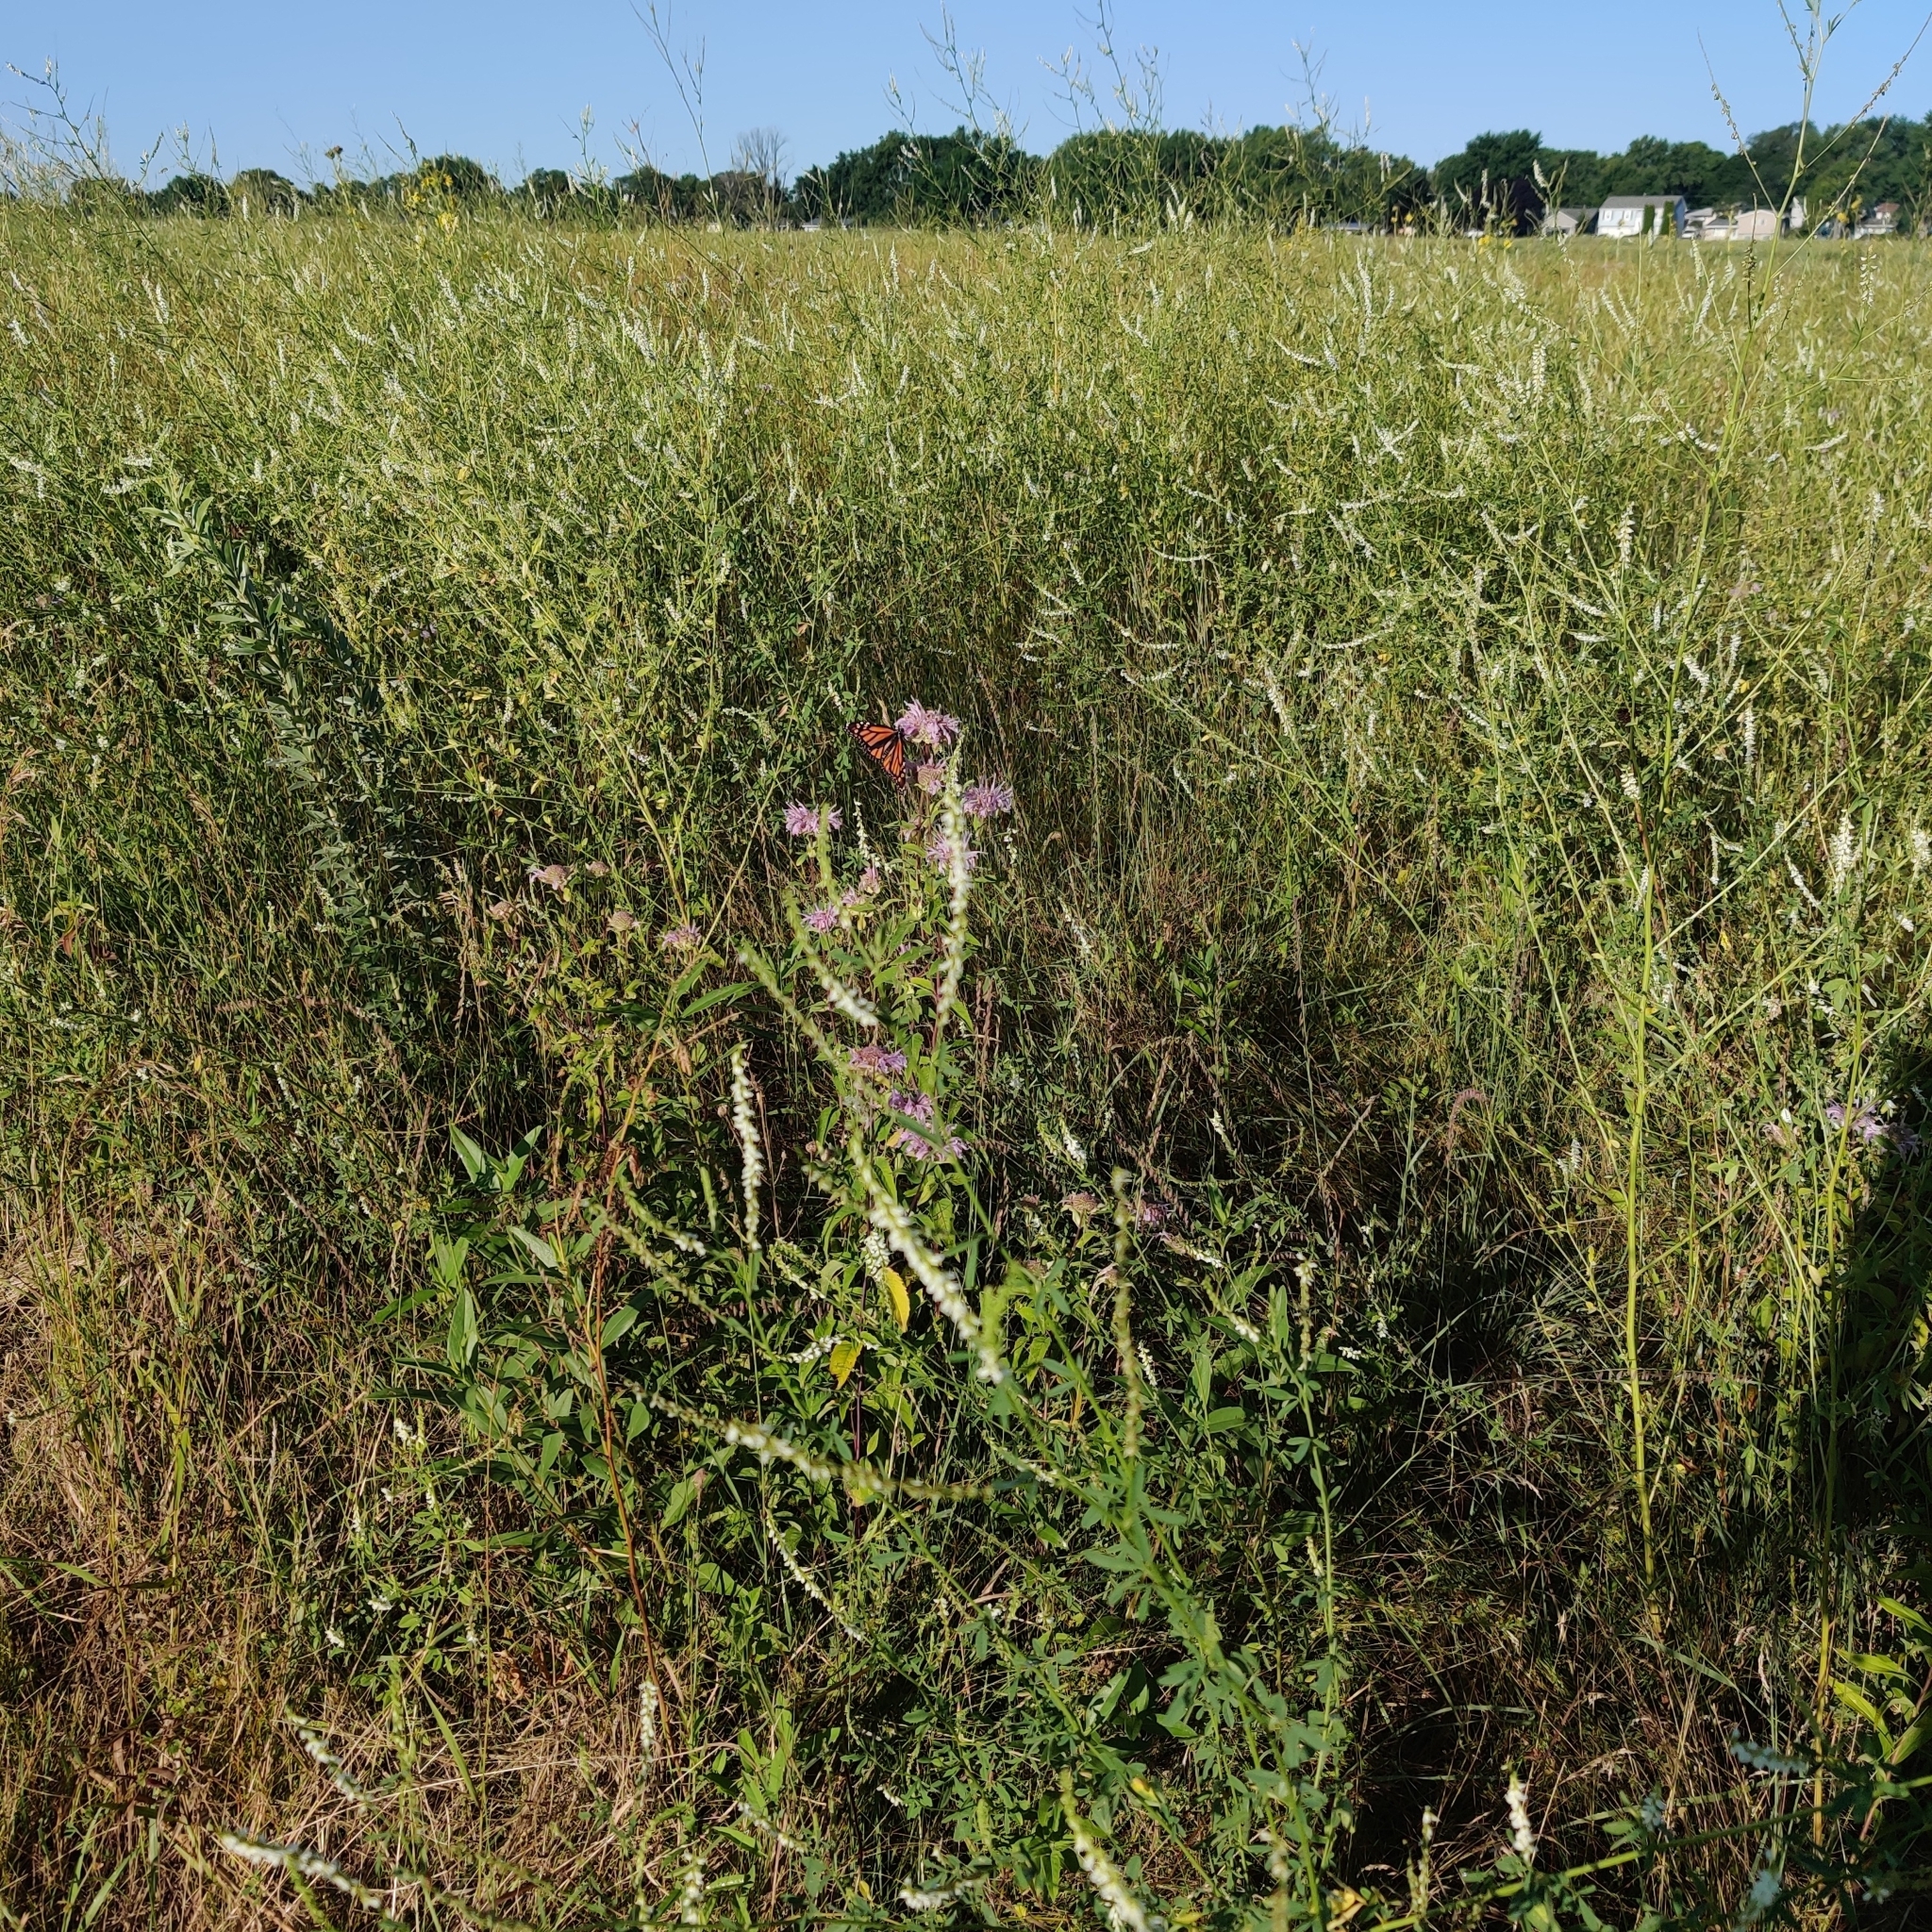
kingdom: Animalia
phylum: Arthropoda
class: Insecta
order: Lepidoptera
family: Nymphalidae
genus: Danaus
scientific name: Danaus plexippus
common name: Monarch
